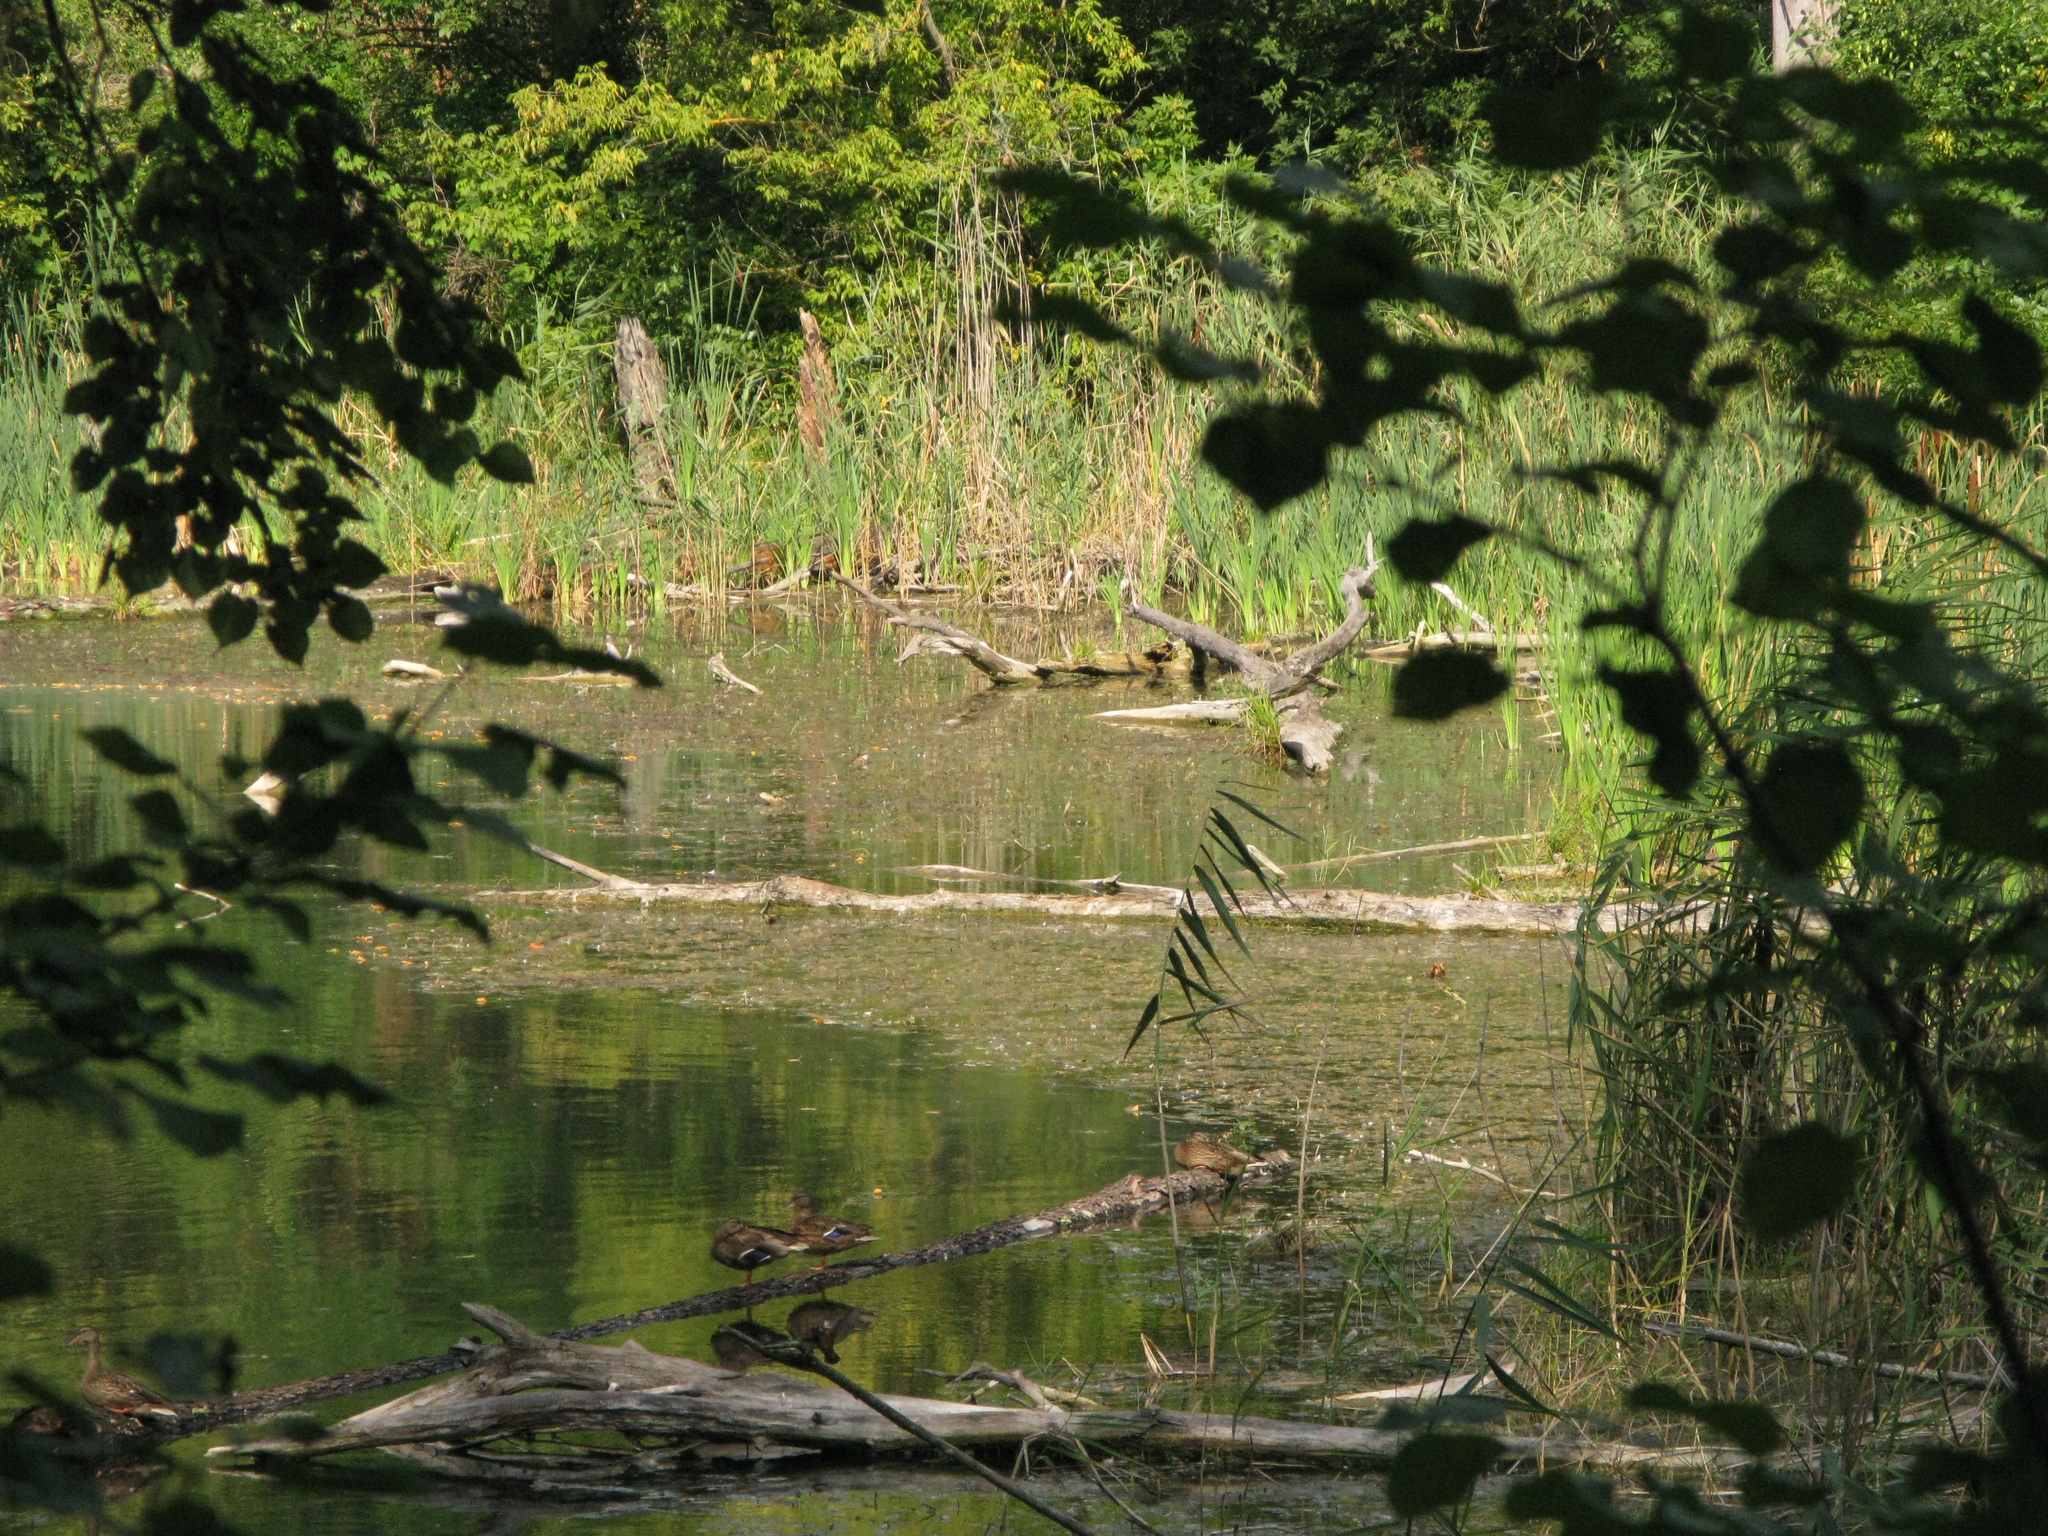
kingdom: Animalia
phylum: Chordata
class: Aves
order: Anseriformes
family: Anatidae
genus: Anas
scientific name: Anas platyrhynchos
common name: Mallard
